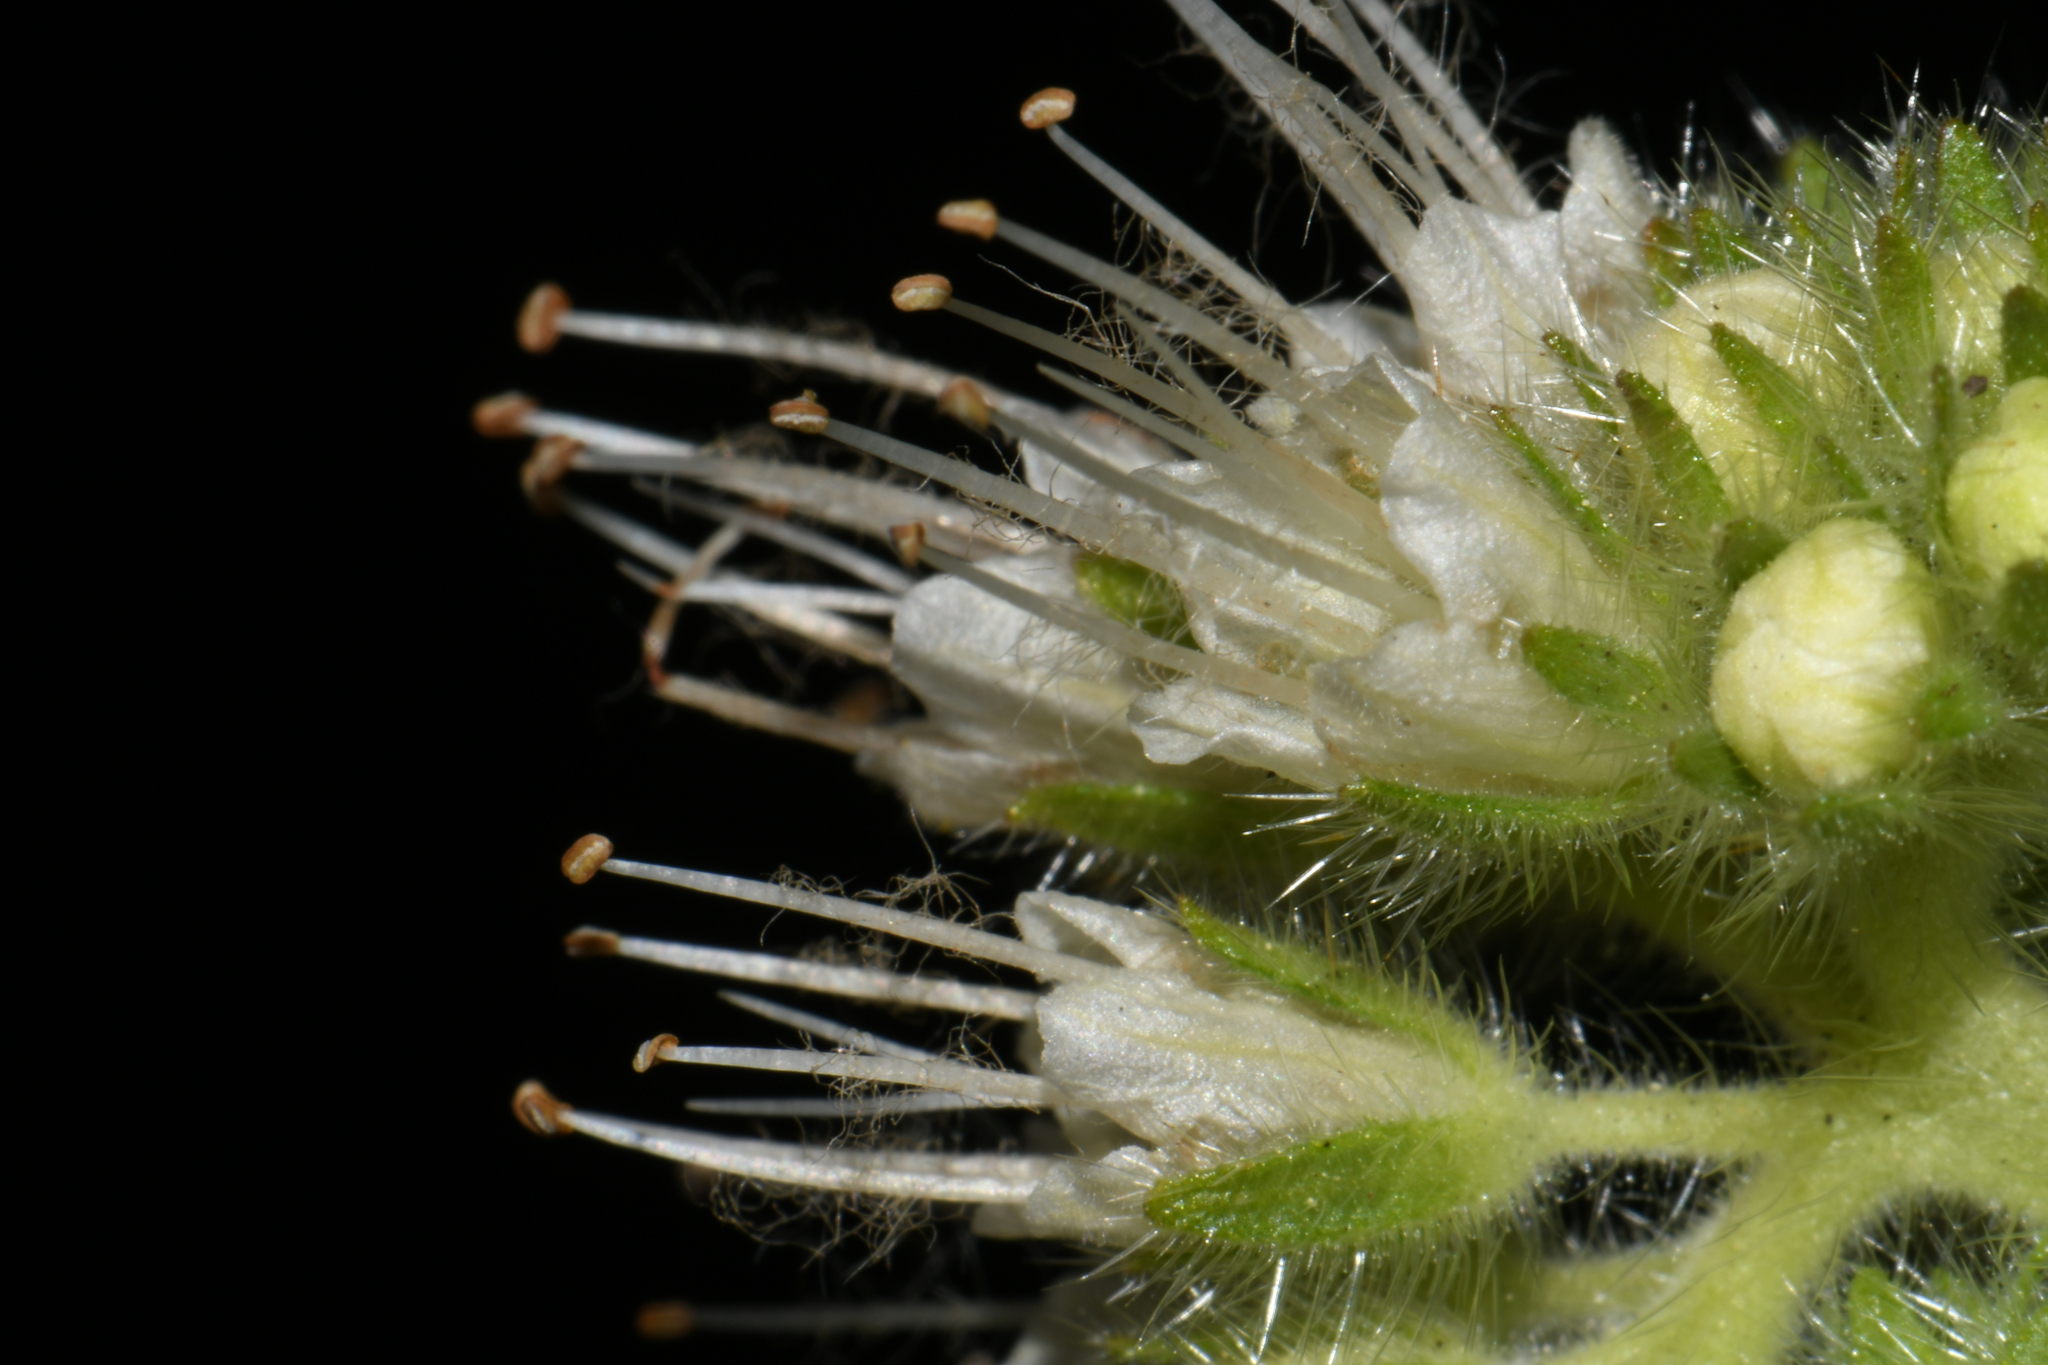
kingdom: Plantae
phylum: Tracheophyta
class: Magnoliopsida
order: Boraginales
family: Hydrophyllaceae
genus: Phacelia
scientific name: Phacelia heterophylla
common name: Variable-leaved phacelia
